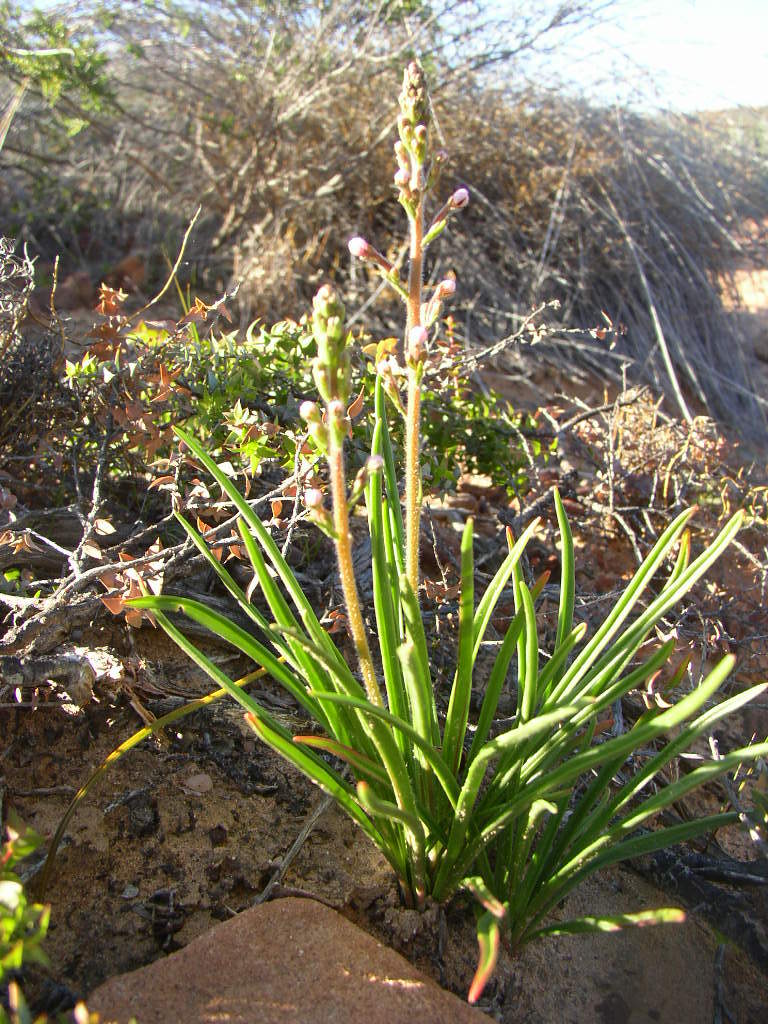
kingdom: Plantae
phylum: Tracheophyta
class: Magnoliopsida
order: Asterales
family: Stylidiaceae
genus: Stylidium
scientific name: Stylidium elongatum
